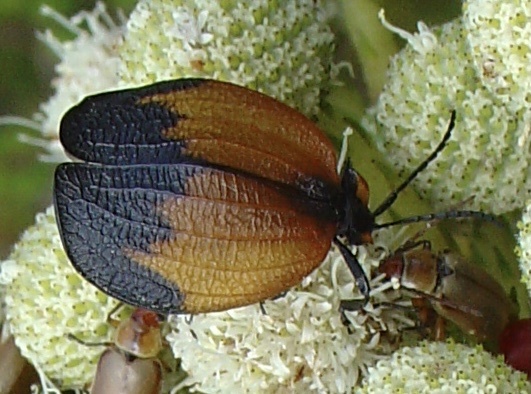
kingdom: Animalia
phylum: Arthropoda
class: Insecta
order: Coleoptera
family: Lycidae
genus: Lycus
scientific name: Lycus
